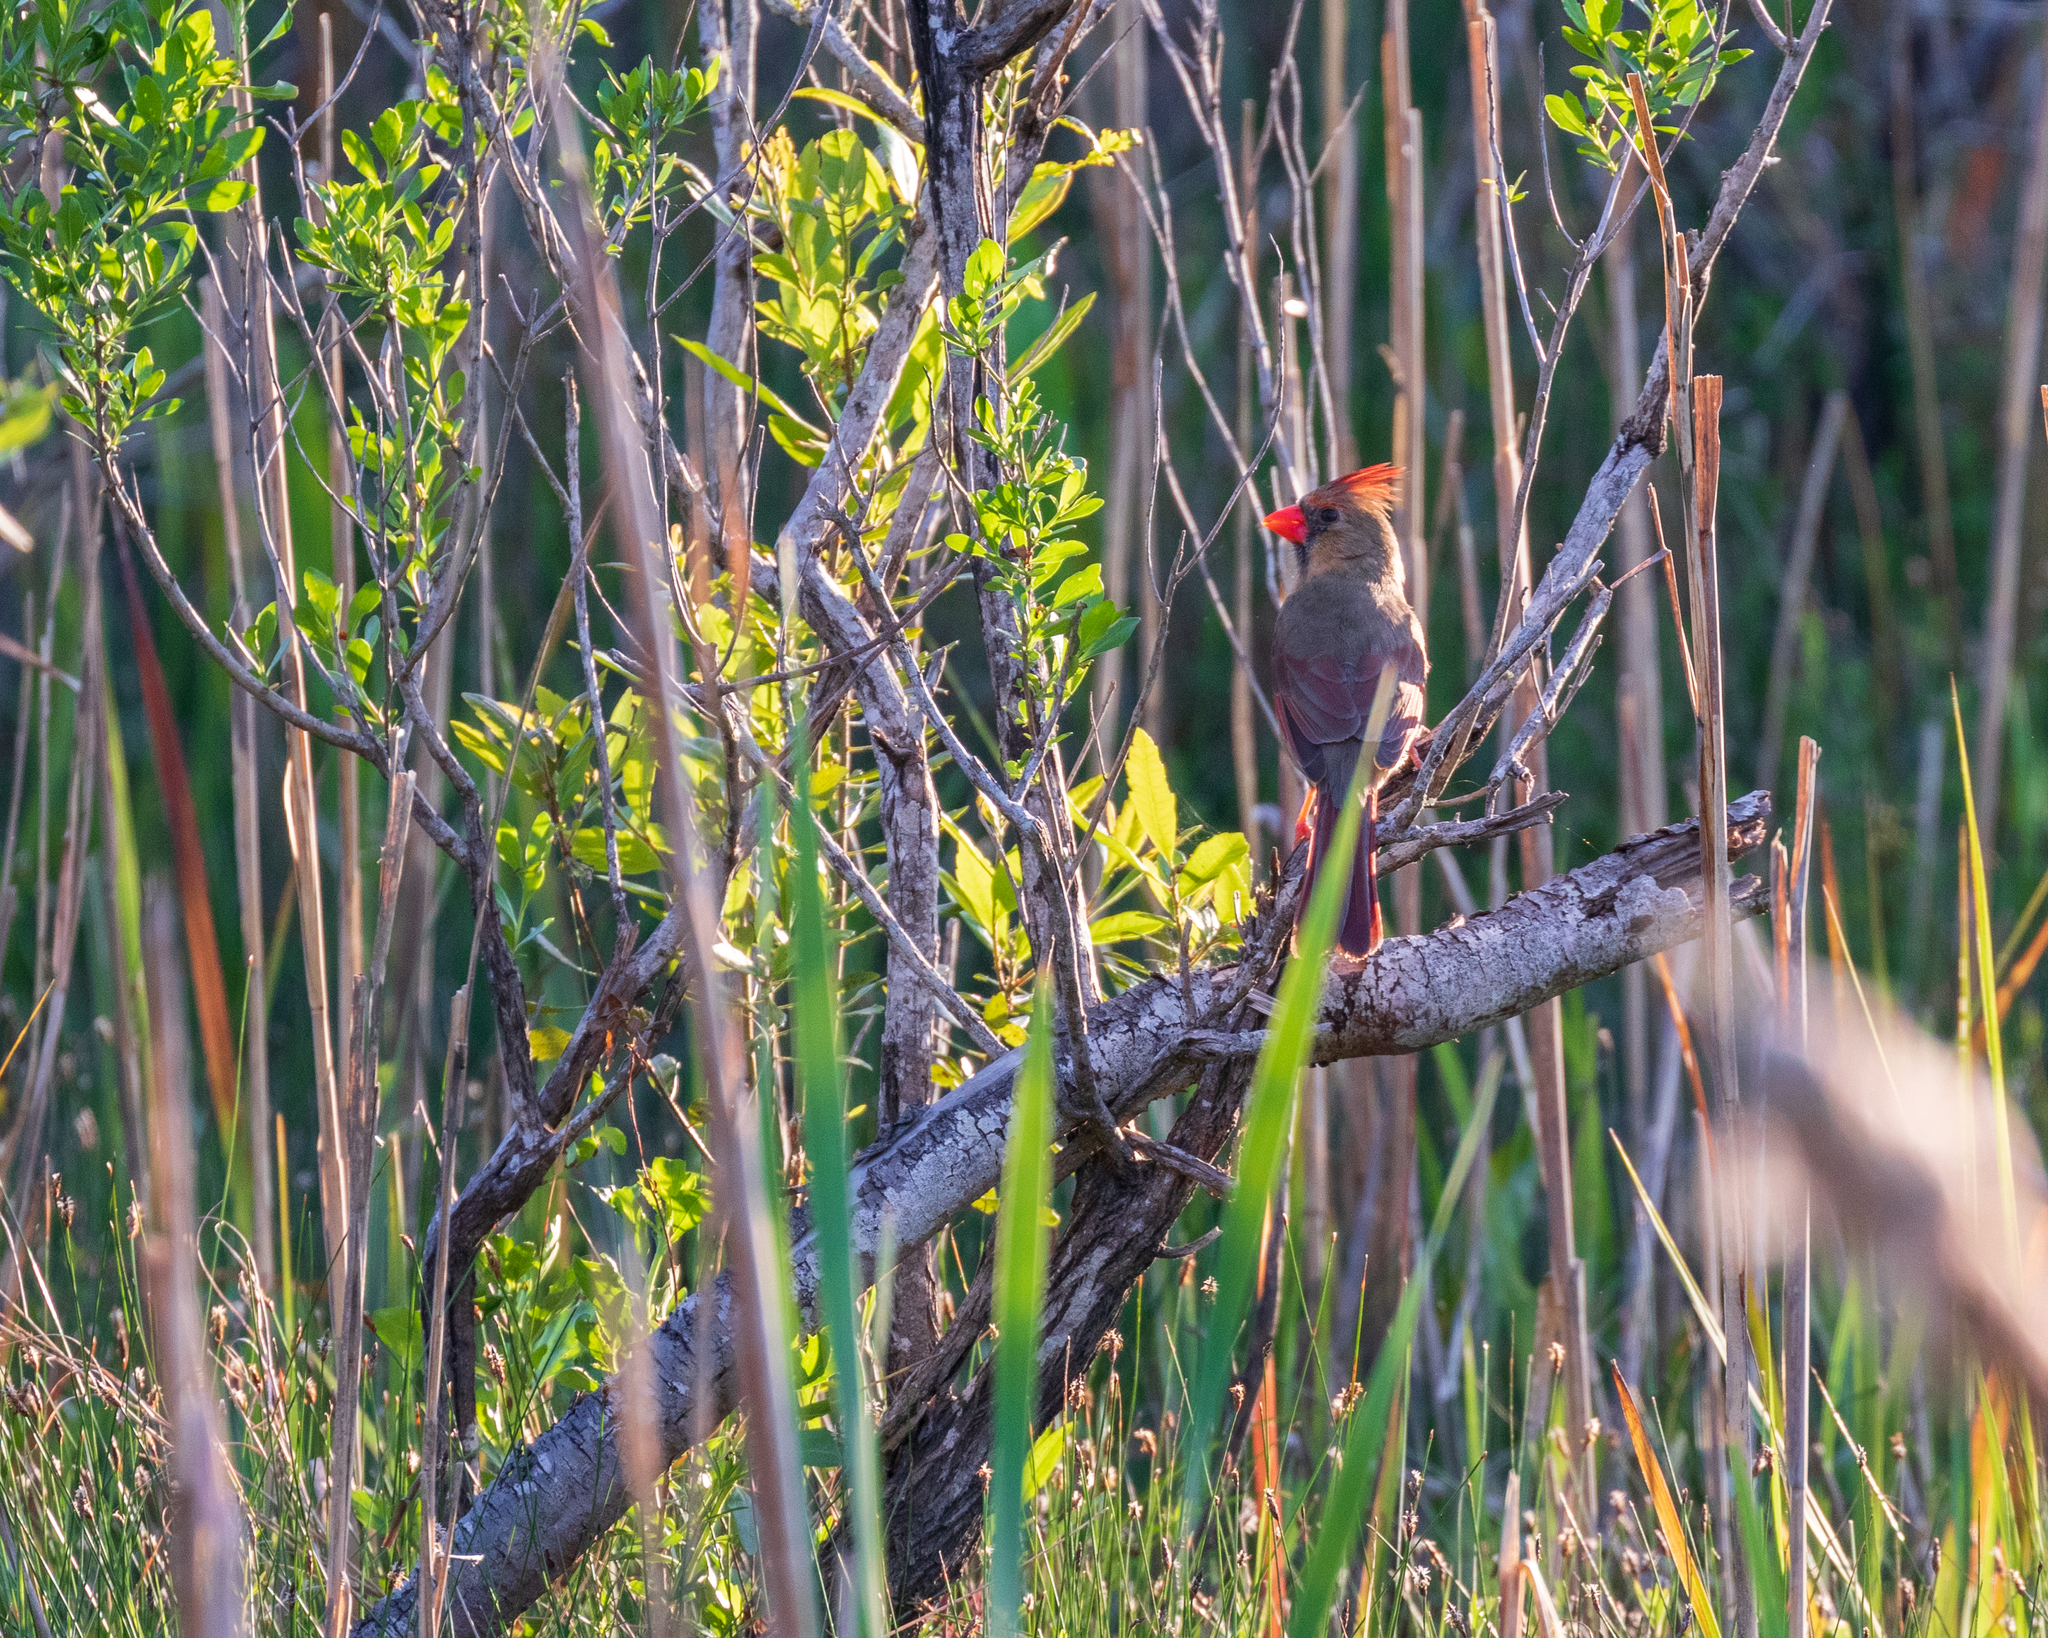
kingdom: Animalia
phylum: Chordata
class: Aves
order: Passeriformes
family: Cardinalidae
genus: Cardinalis
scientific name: Cardinalis cardinalis
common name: Northern cardinal
